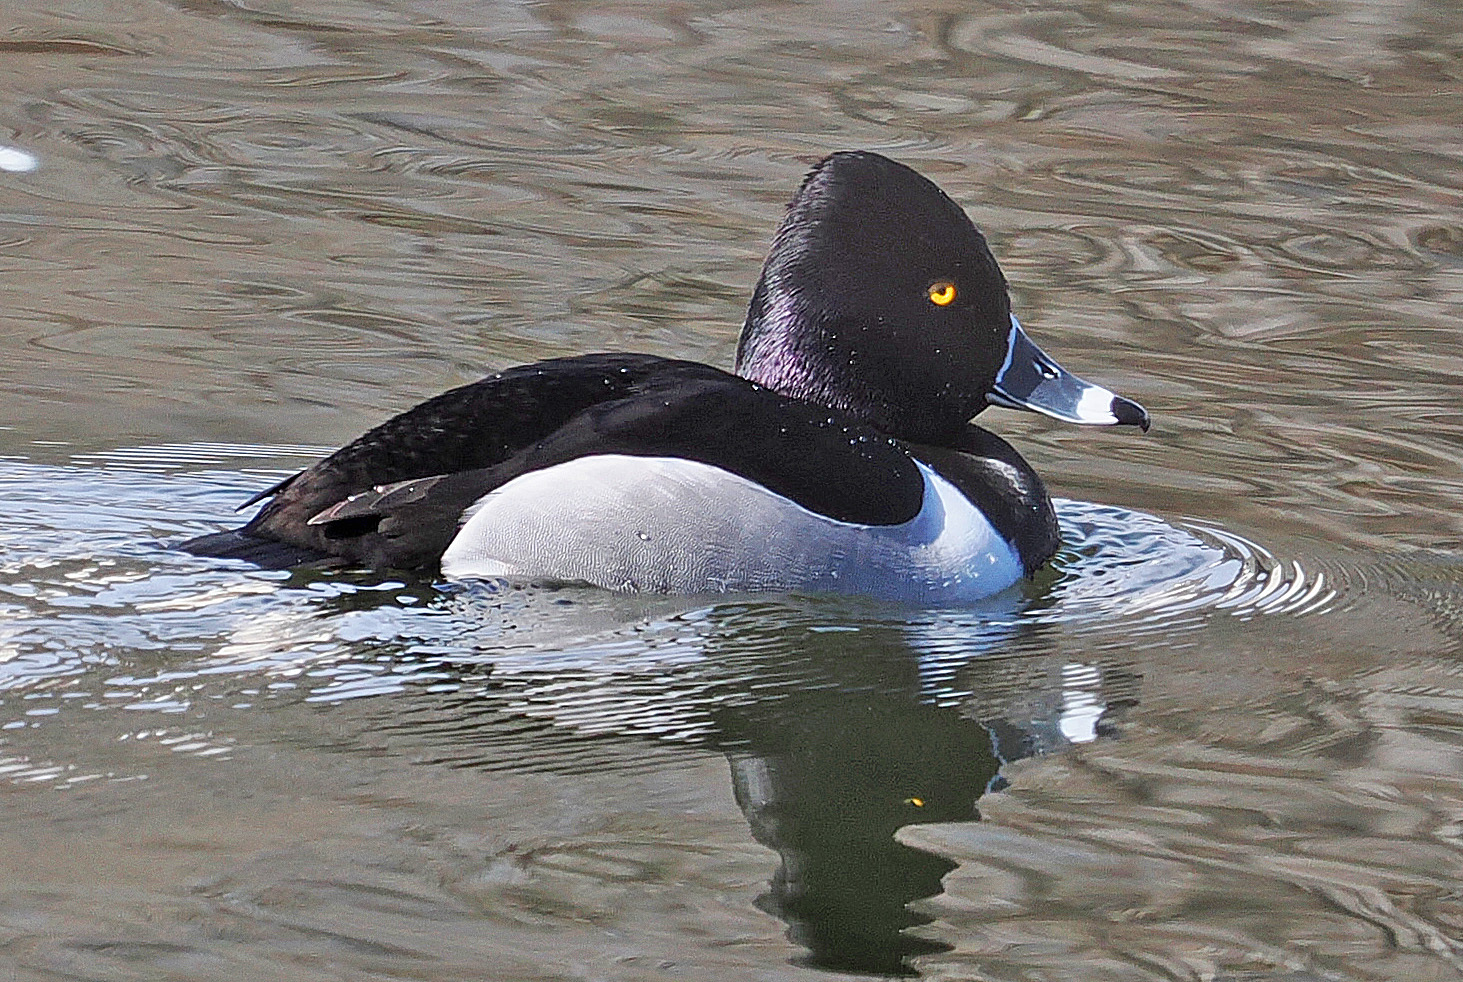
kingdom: Animalia
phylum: Chordata
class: Aves
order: Anseriformes
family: Anatidae
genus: Aythya
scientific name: Aythya collaris
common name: Ring-necked duck
